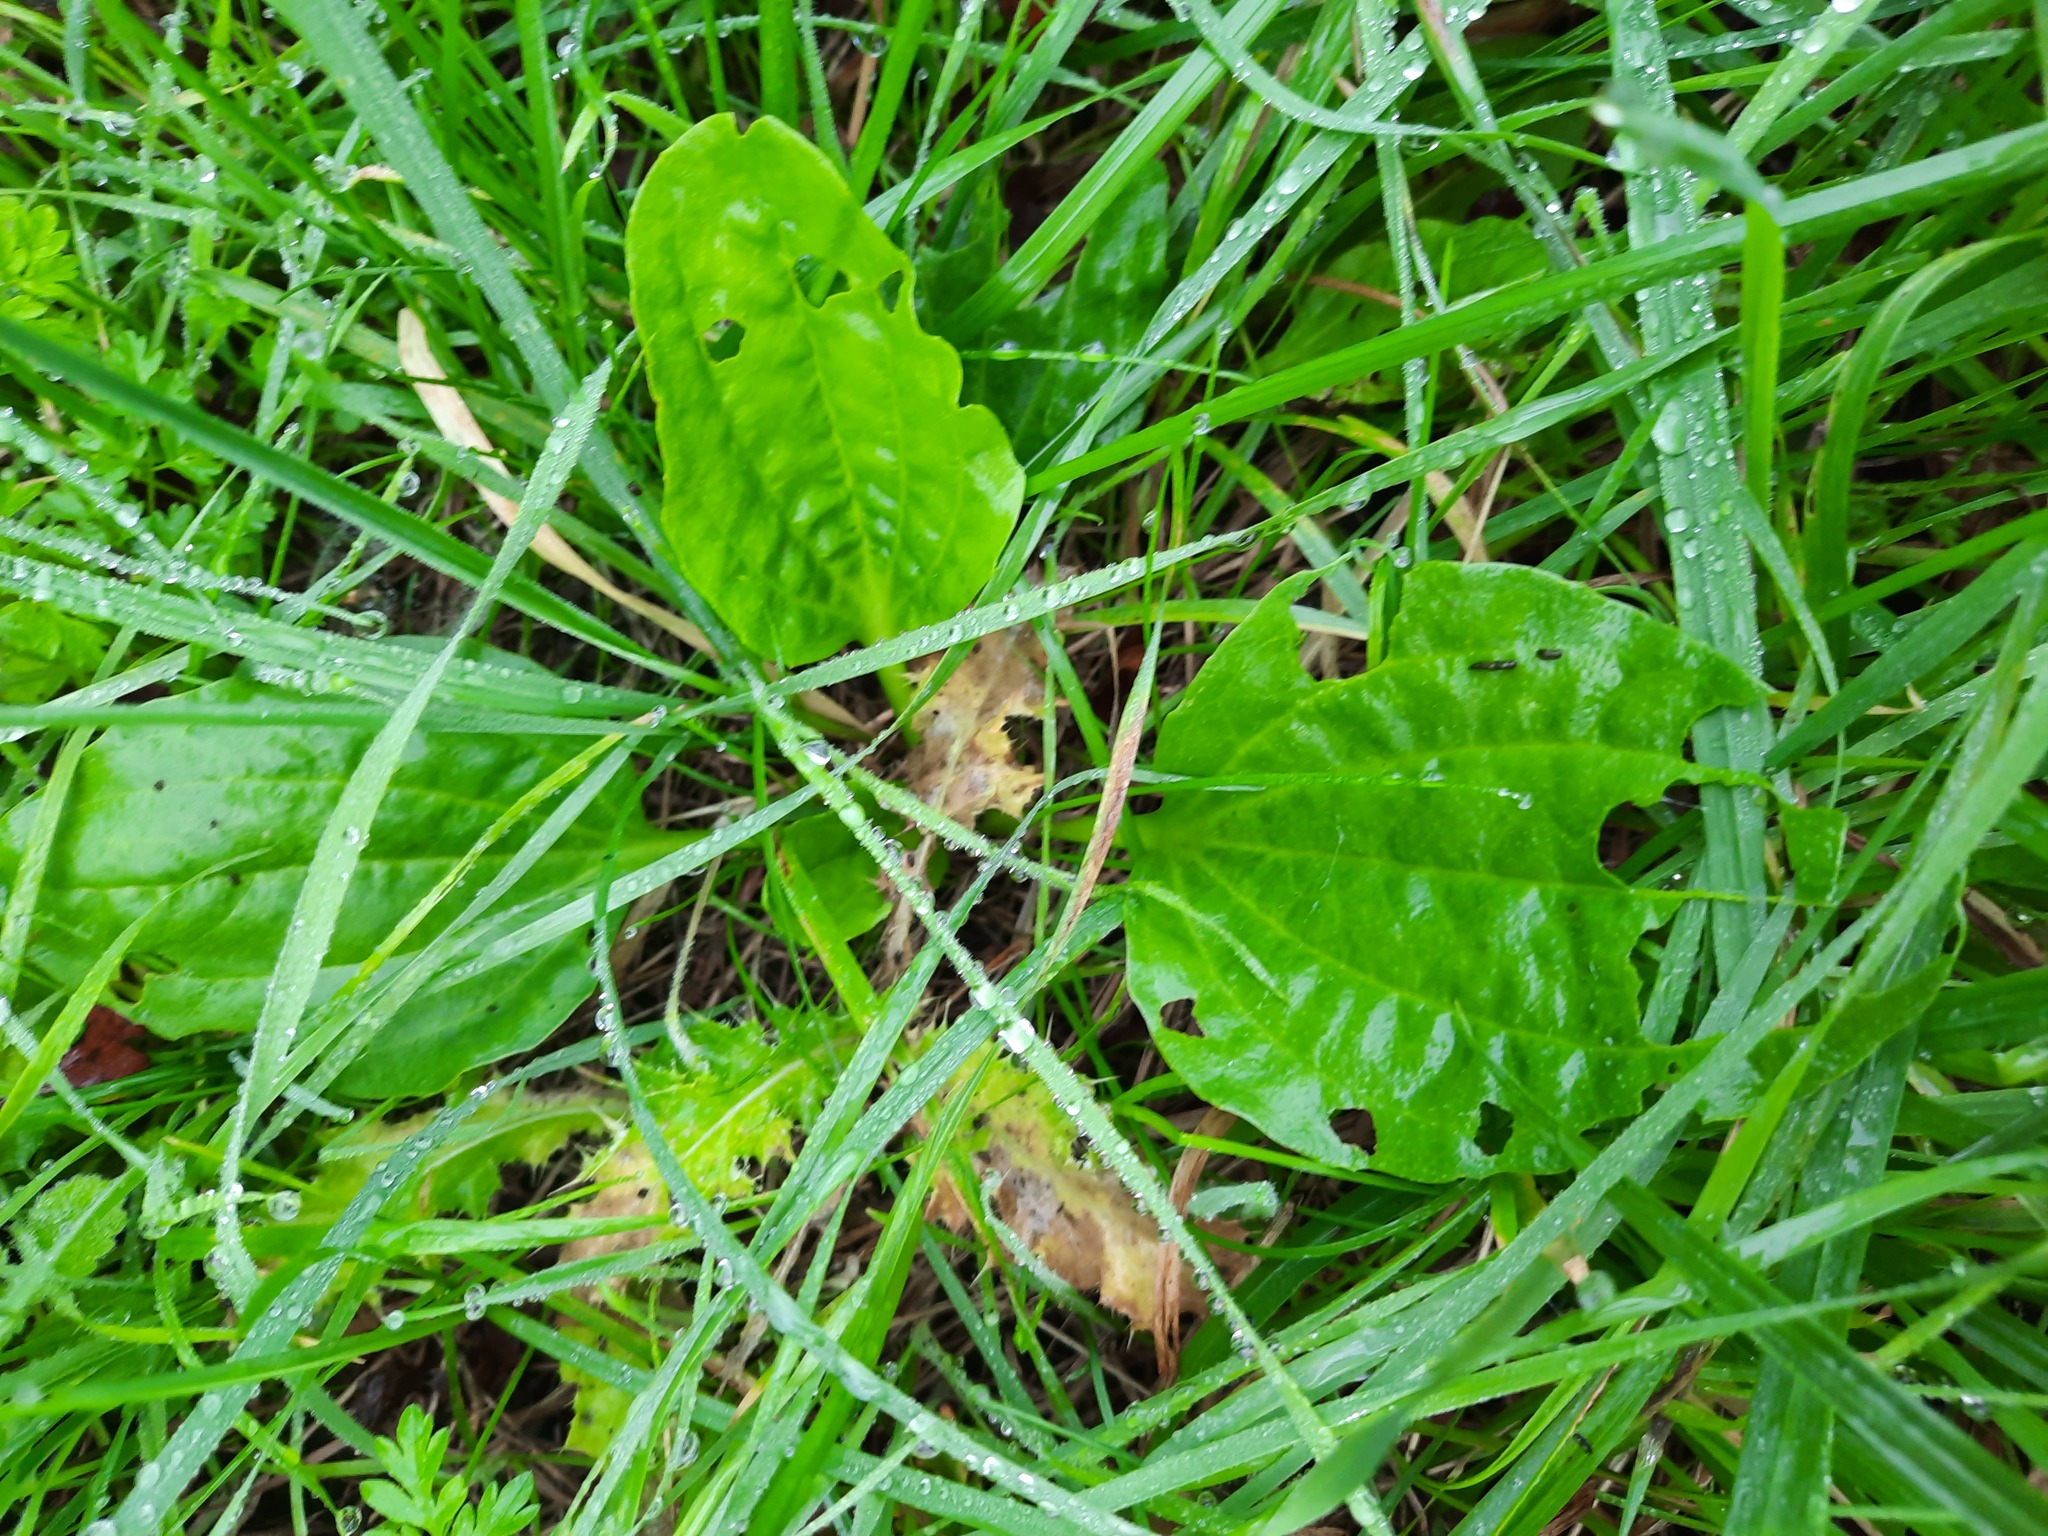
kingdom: Plantae
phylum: Tracheophyta
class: Magnoliopsida
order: Lamiales
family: Plantaginaceae
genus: Plantago
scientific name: Plantago major
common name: Common plantain
